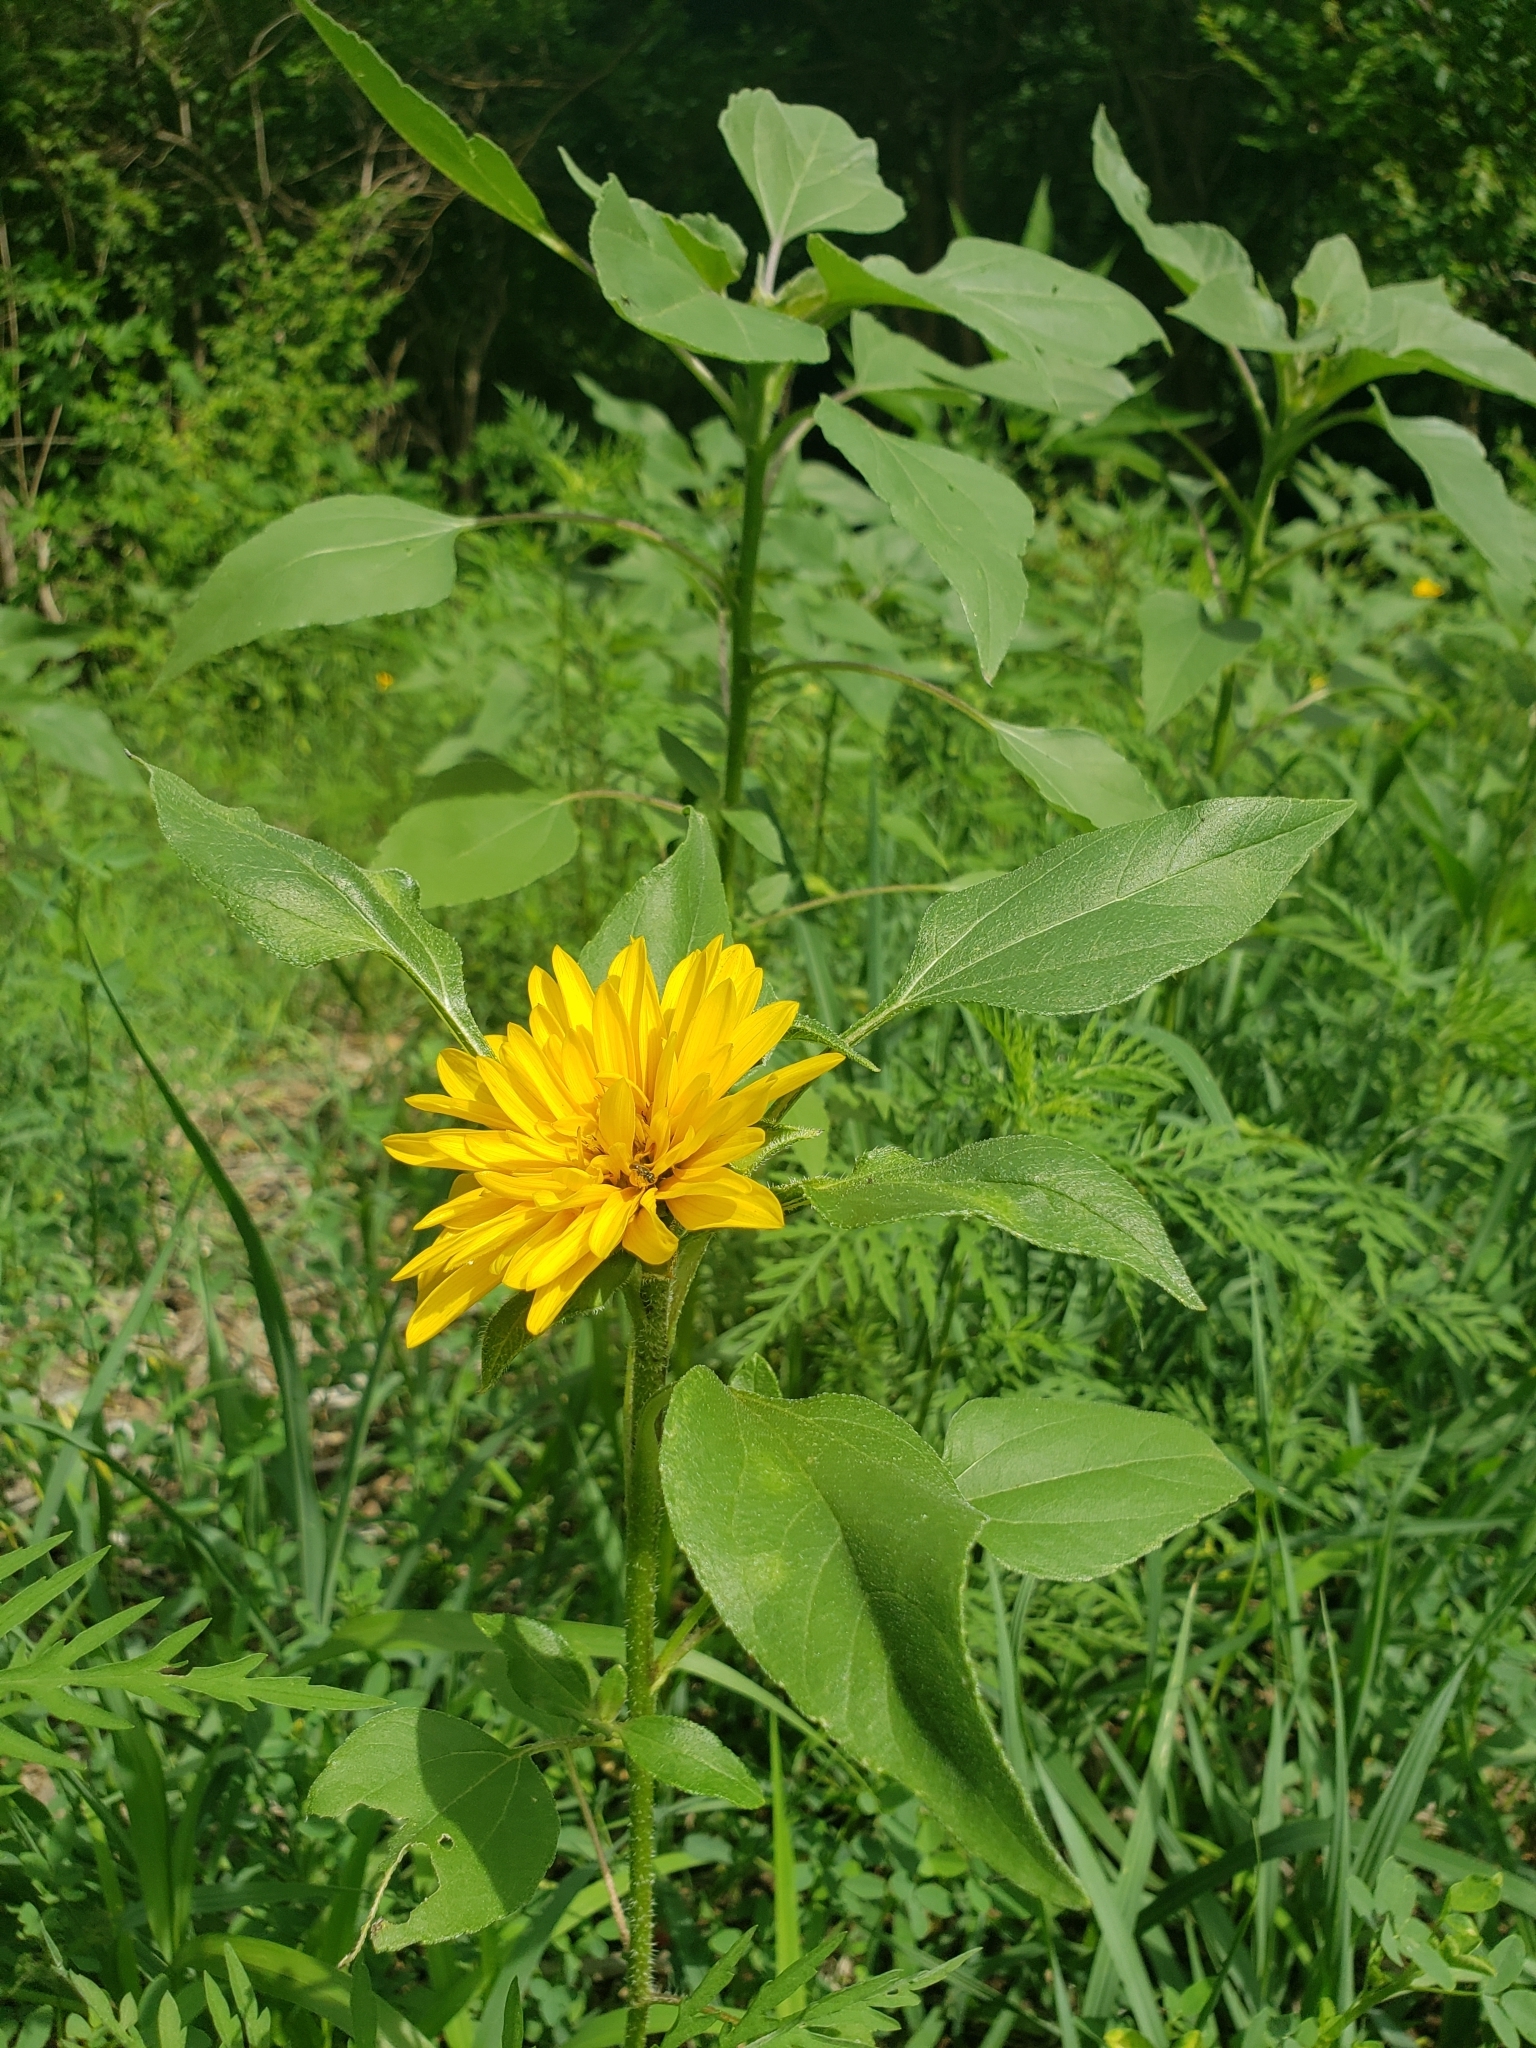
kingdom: Plantae
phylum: Tracheophyta
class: Magnoliopsida
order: Asterales
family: Asteraceae
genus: Helianthus
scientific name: Helianthus annuus
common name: Sunflower
